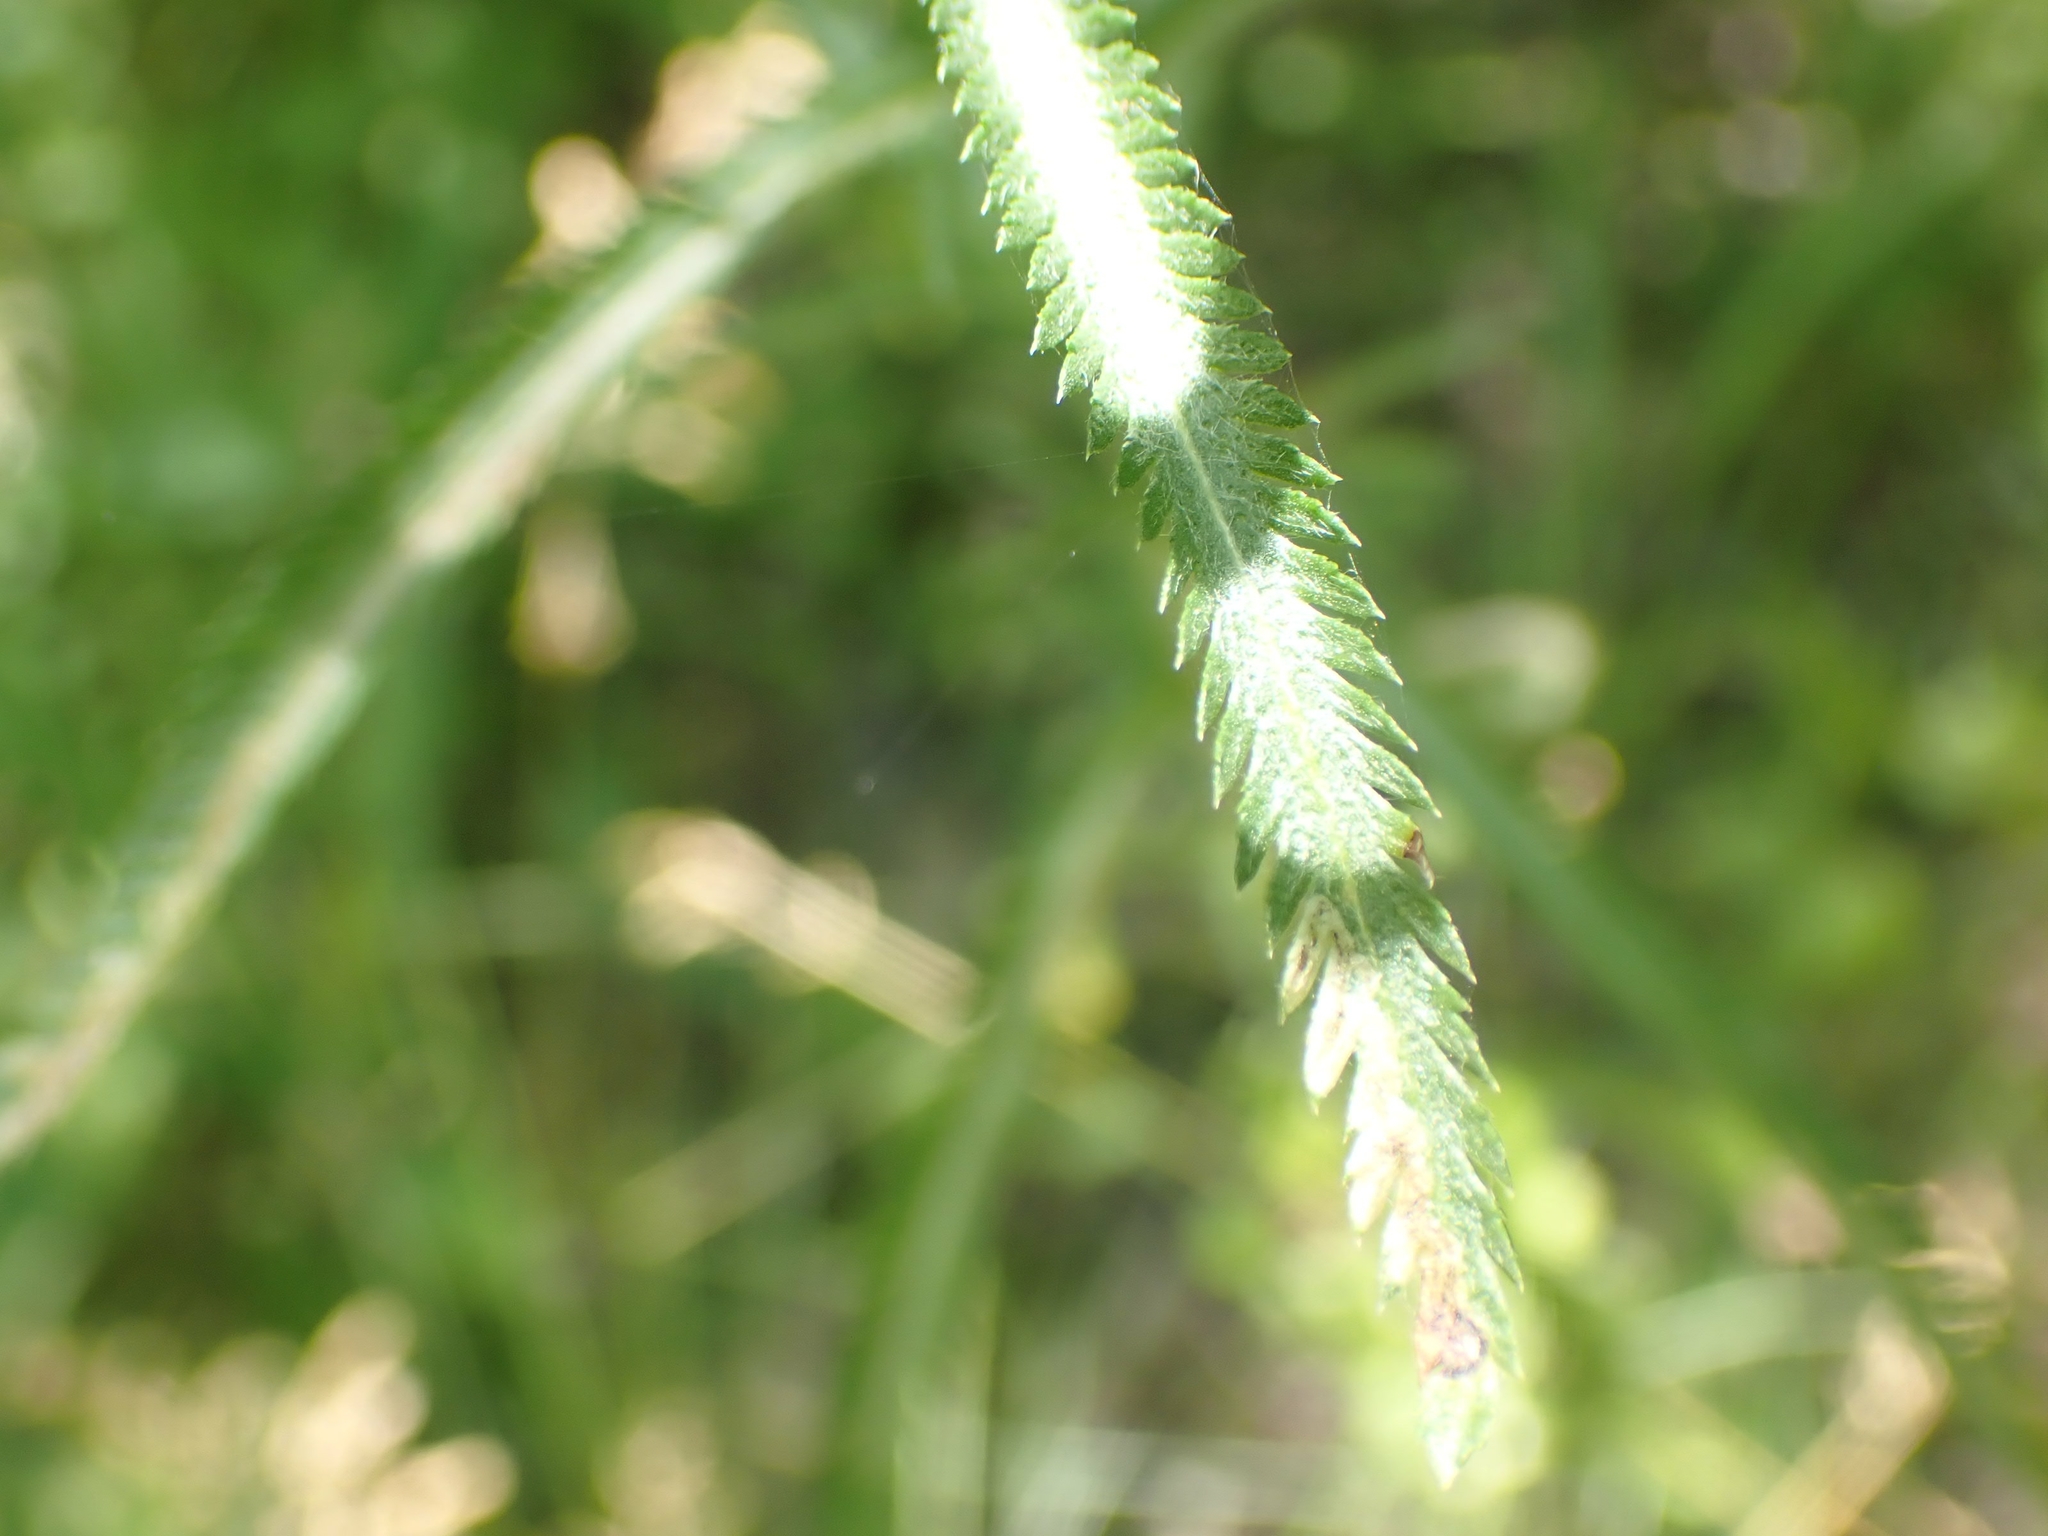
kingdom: Plantae
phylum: Tracheophyta
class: Magnoliopsida
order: Asterales
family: Asteraceae
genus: Achillea
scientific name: Achillea alpina
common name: Siberian yarrow
